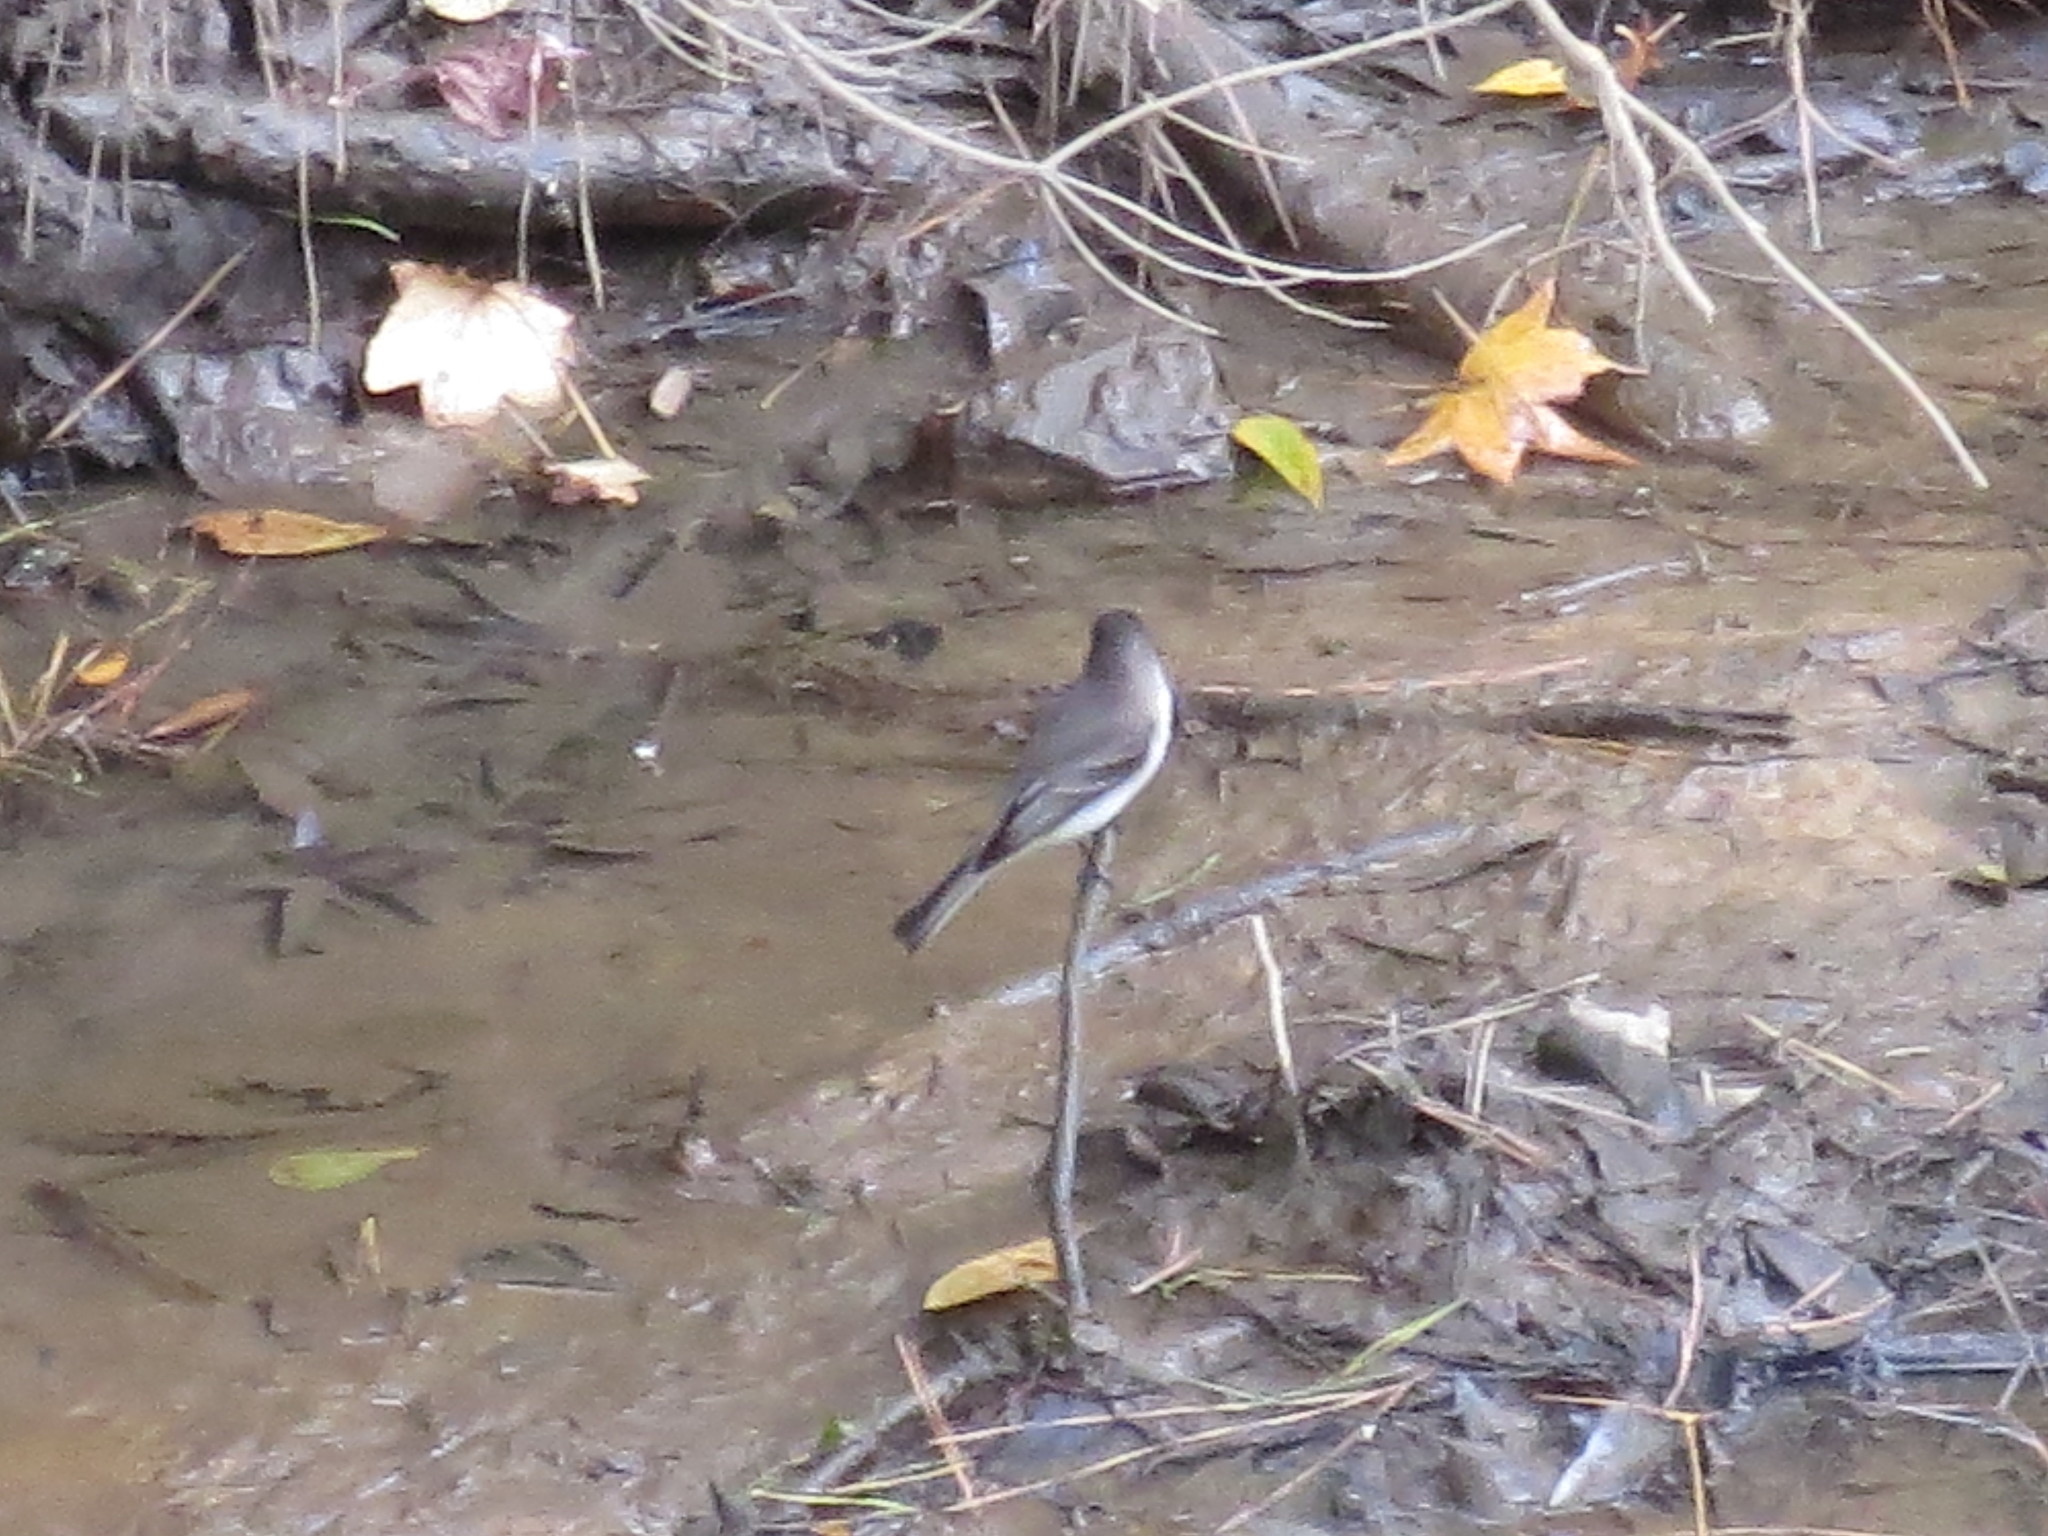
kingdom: Animalia
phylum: Chordata
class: Aves
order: Passeriformes
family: Tyrannidae
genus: Sayornis
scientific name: Sayornis phoebe
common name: Eastern phoebe
